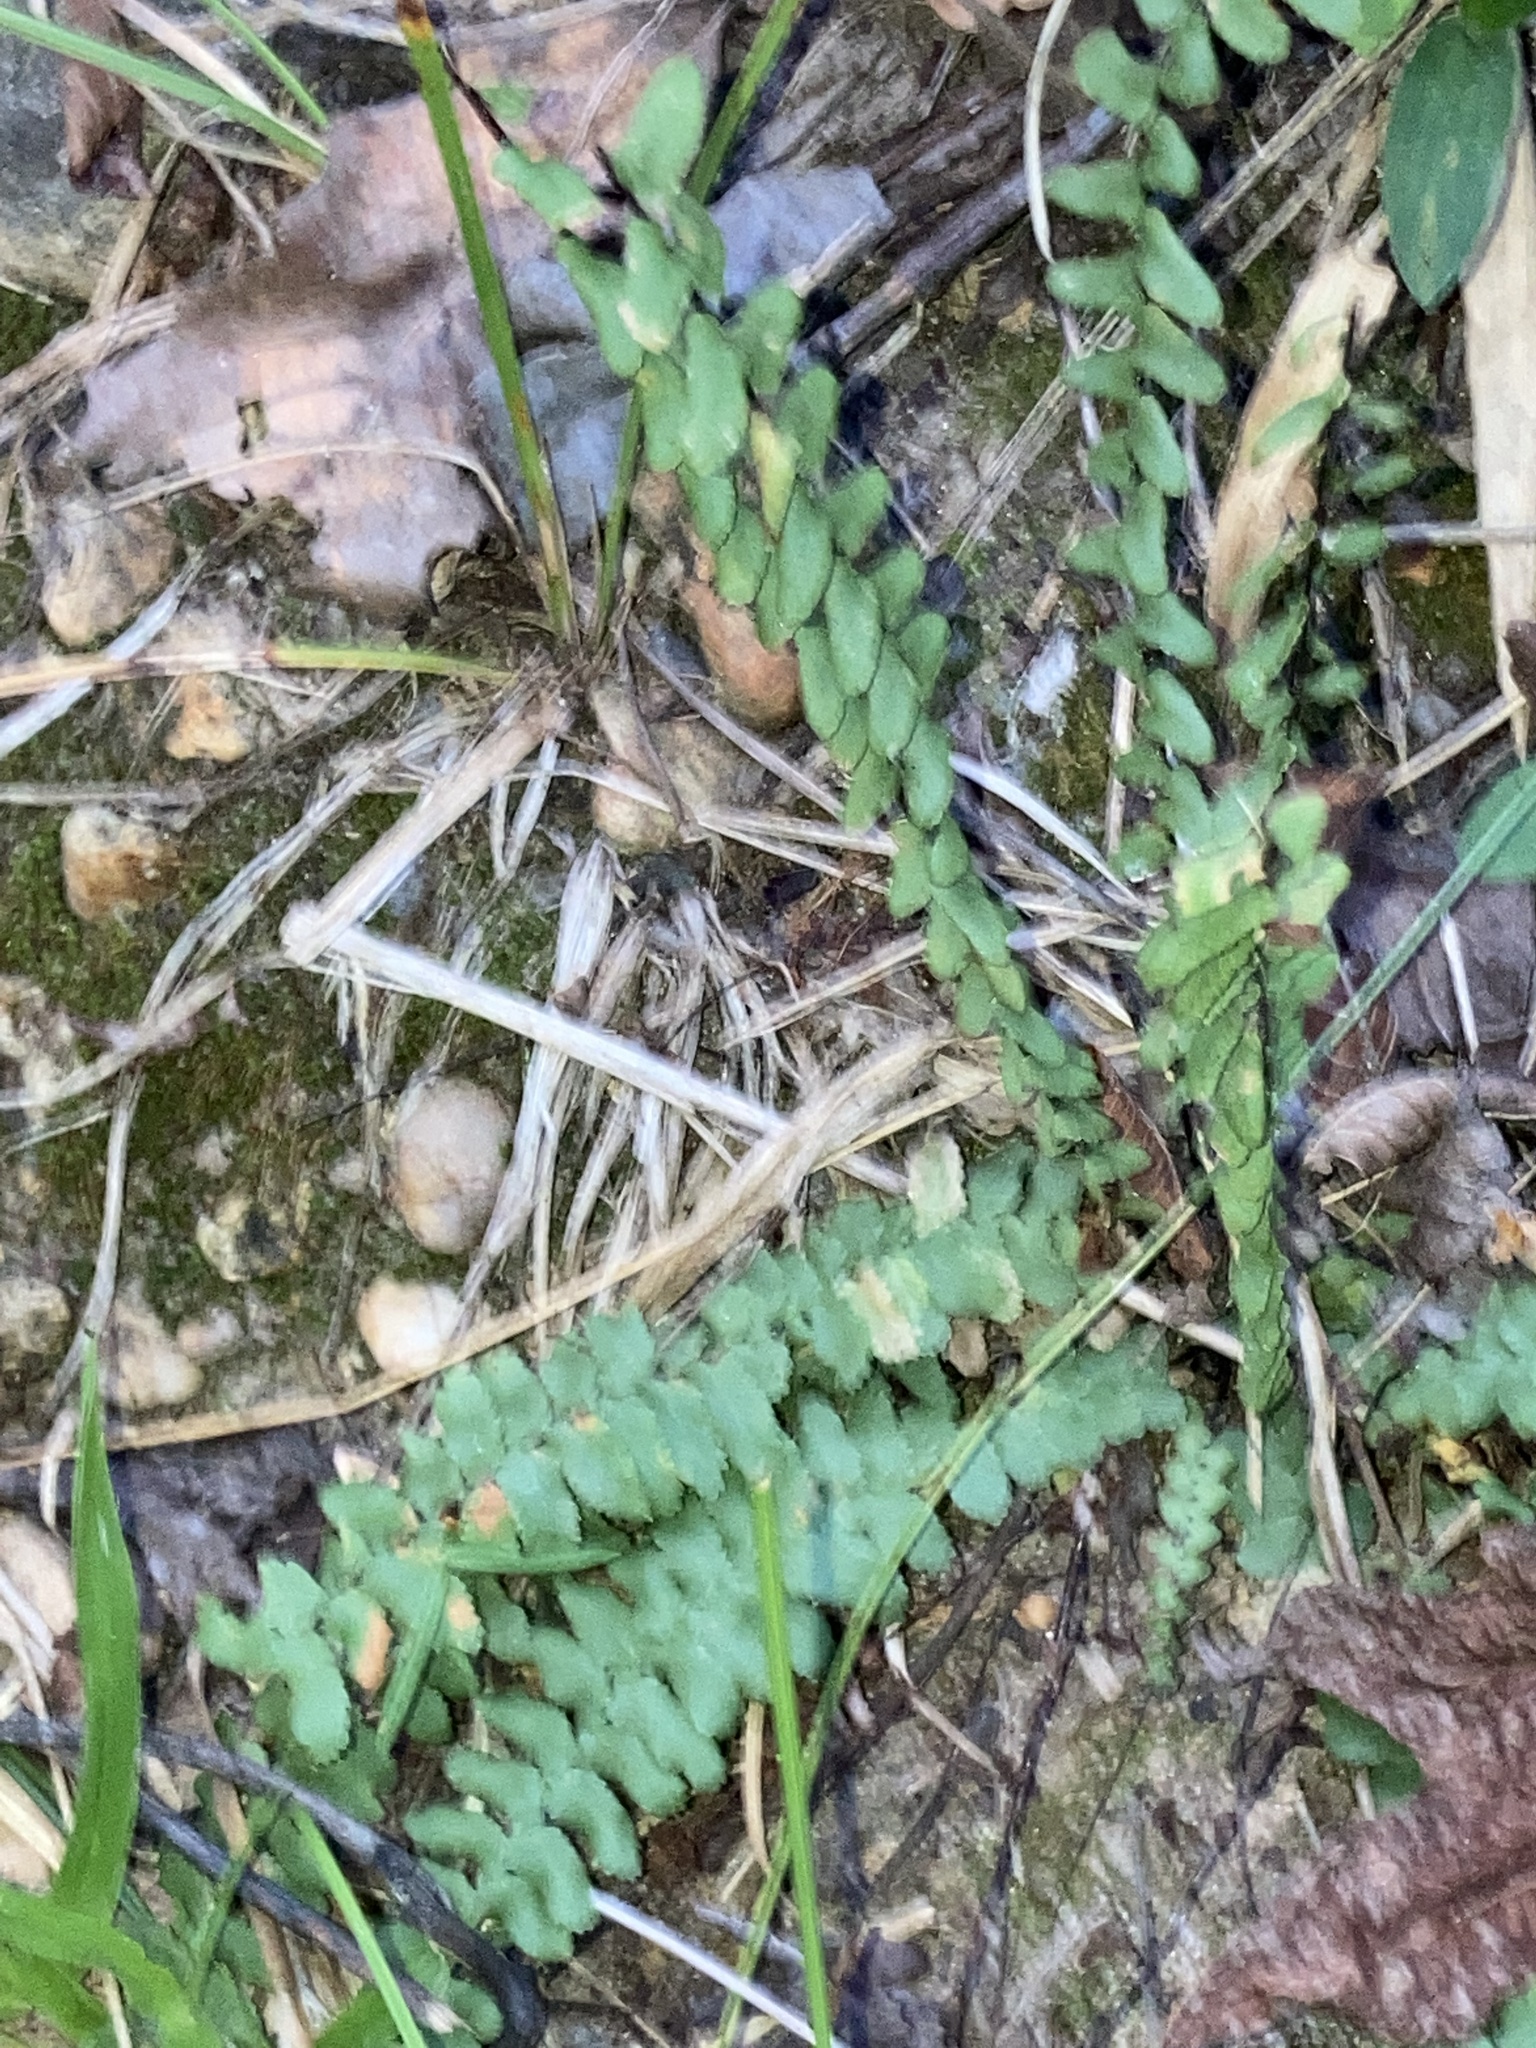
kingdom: Plantae
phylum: Tracheophyta
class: Polypodiopsida
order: Polypodiales
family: Aspleniaceae
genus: Asplenium
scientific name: Asplenium platyneuron
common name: Ebony spleenwort
